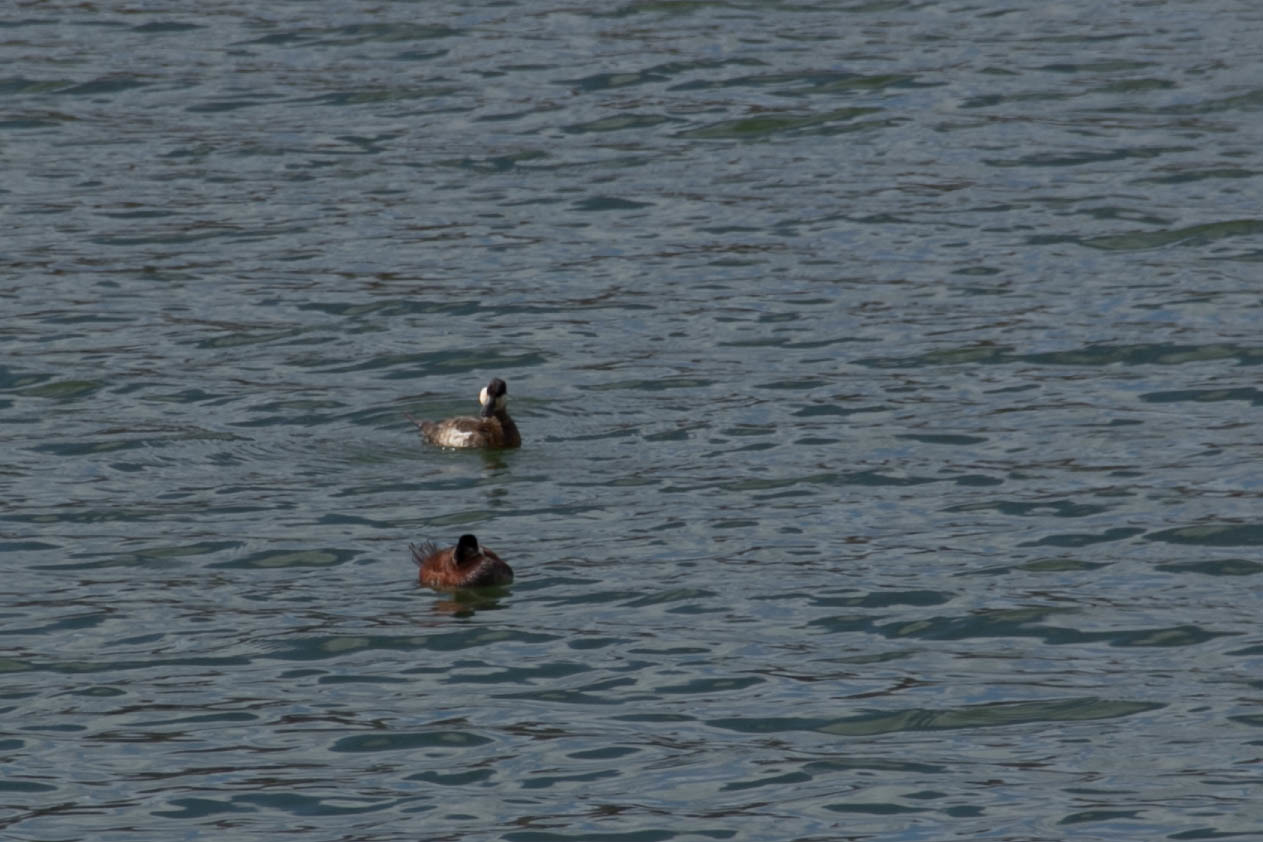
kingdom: Animalia
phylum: Chordata
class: Aves
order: Anseriformes
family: Anatidae
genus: Oxyura
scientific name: Oxyura jamaicensis
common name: Ruddy duck
